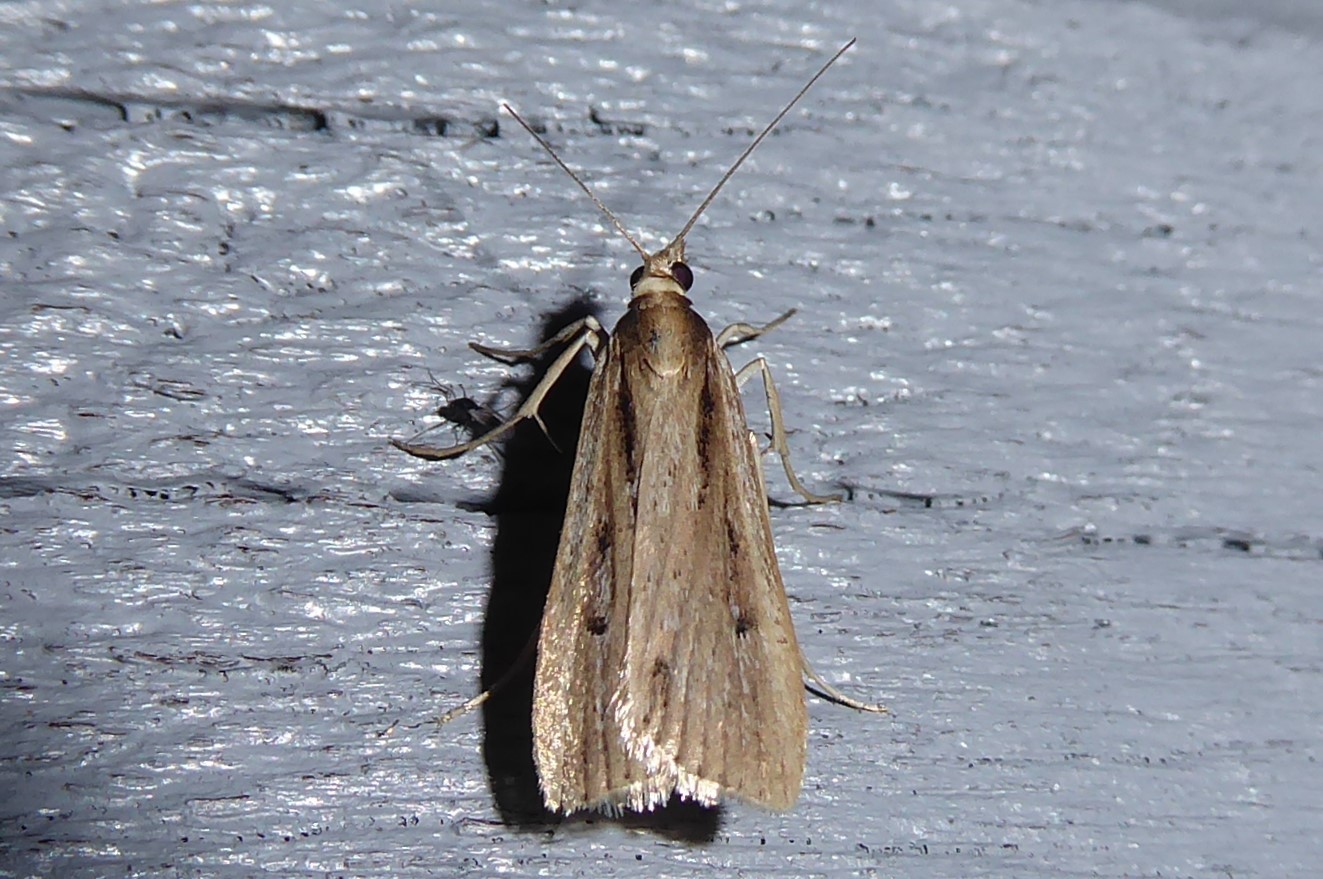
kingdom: Animalia
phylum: Arthropoda
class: Insecta
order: Lepidoptera
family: Crambidae
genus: Eudonia
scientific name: Eudonia sabulosella
